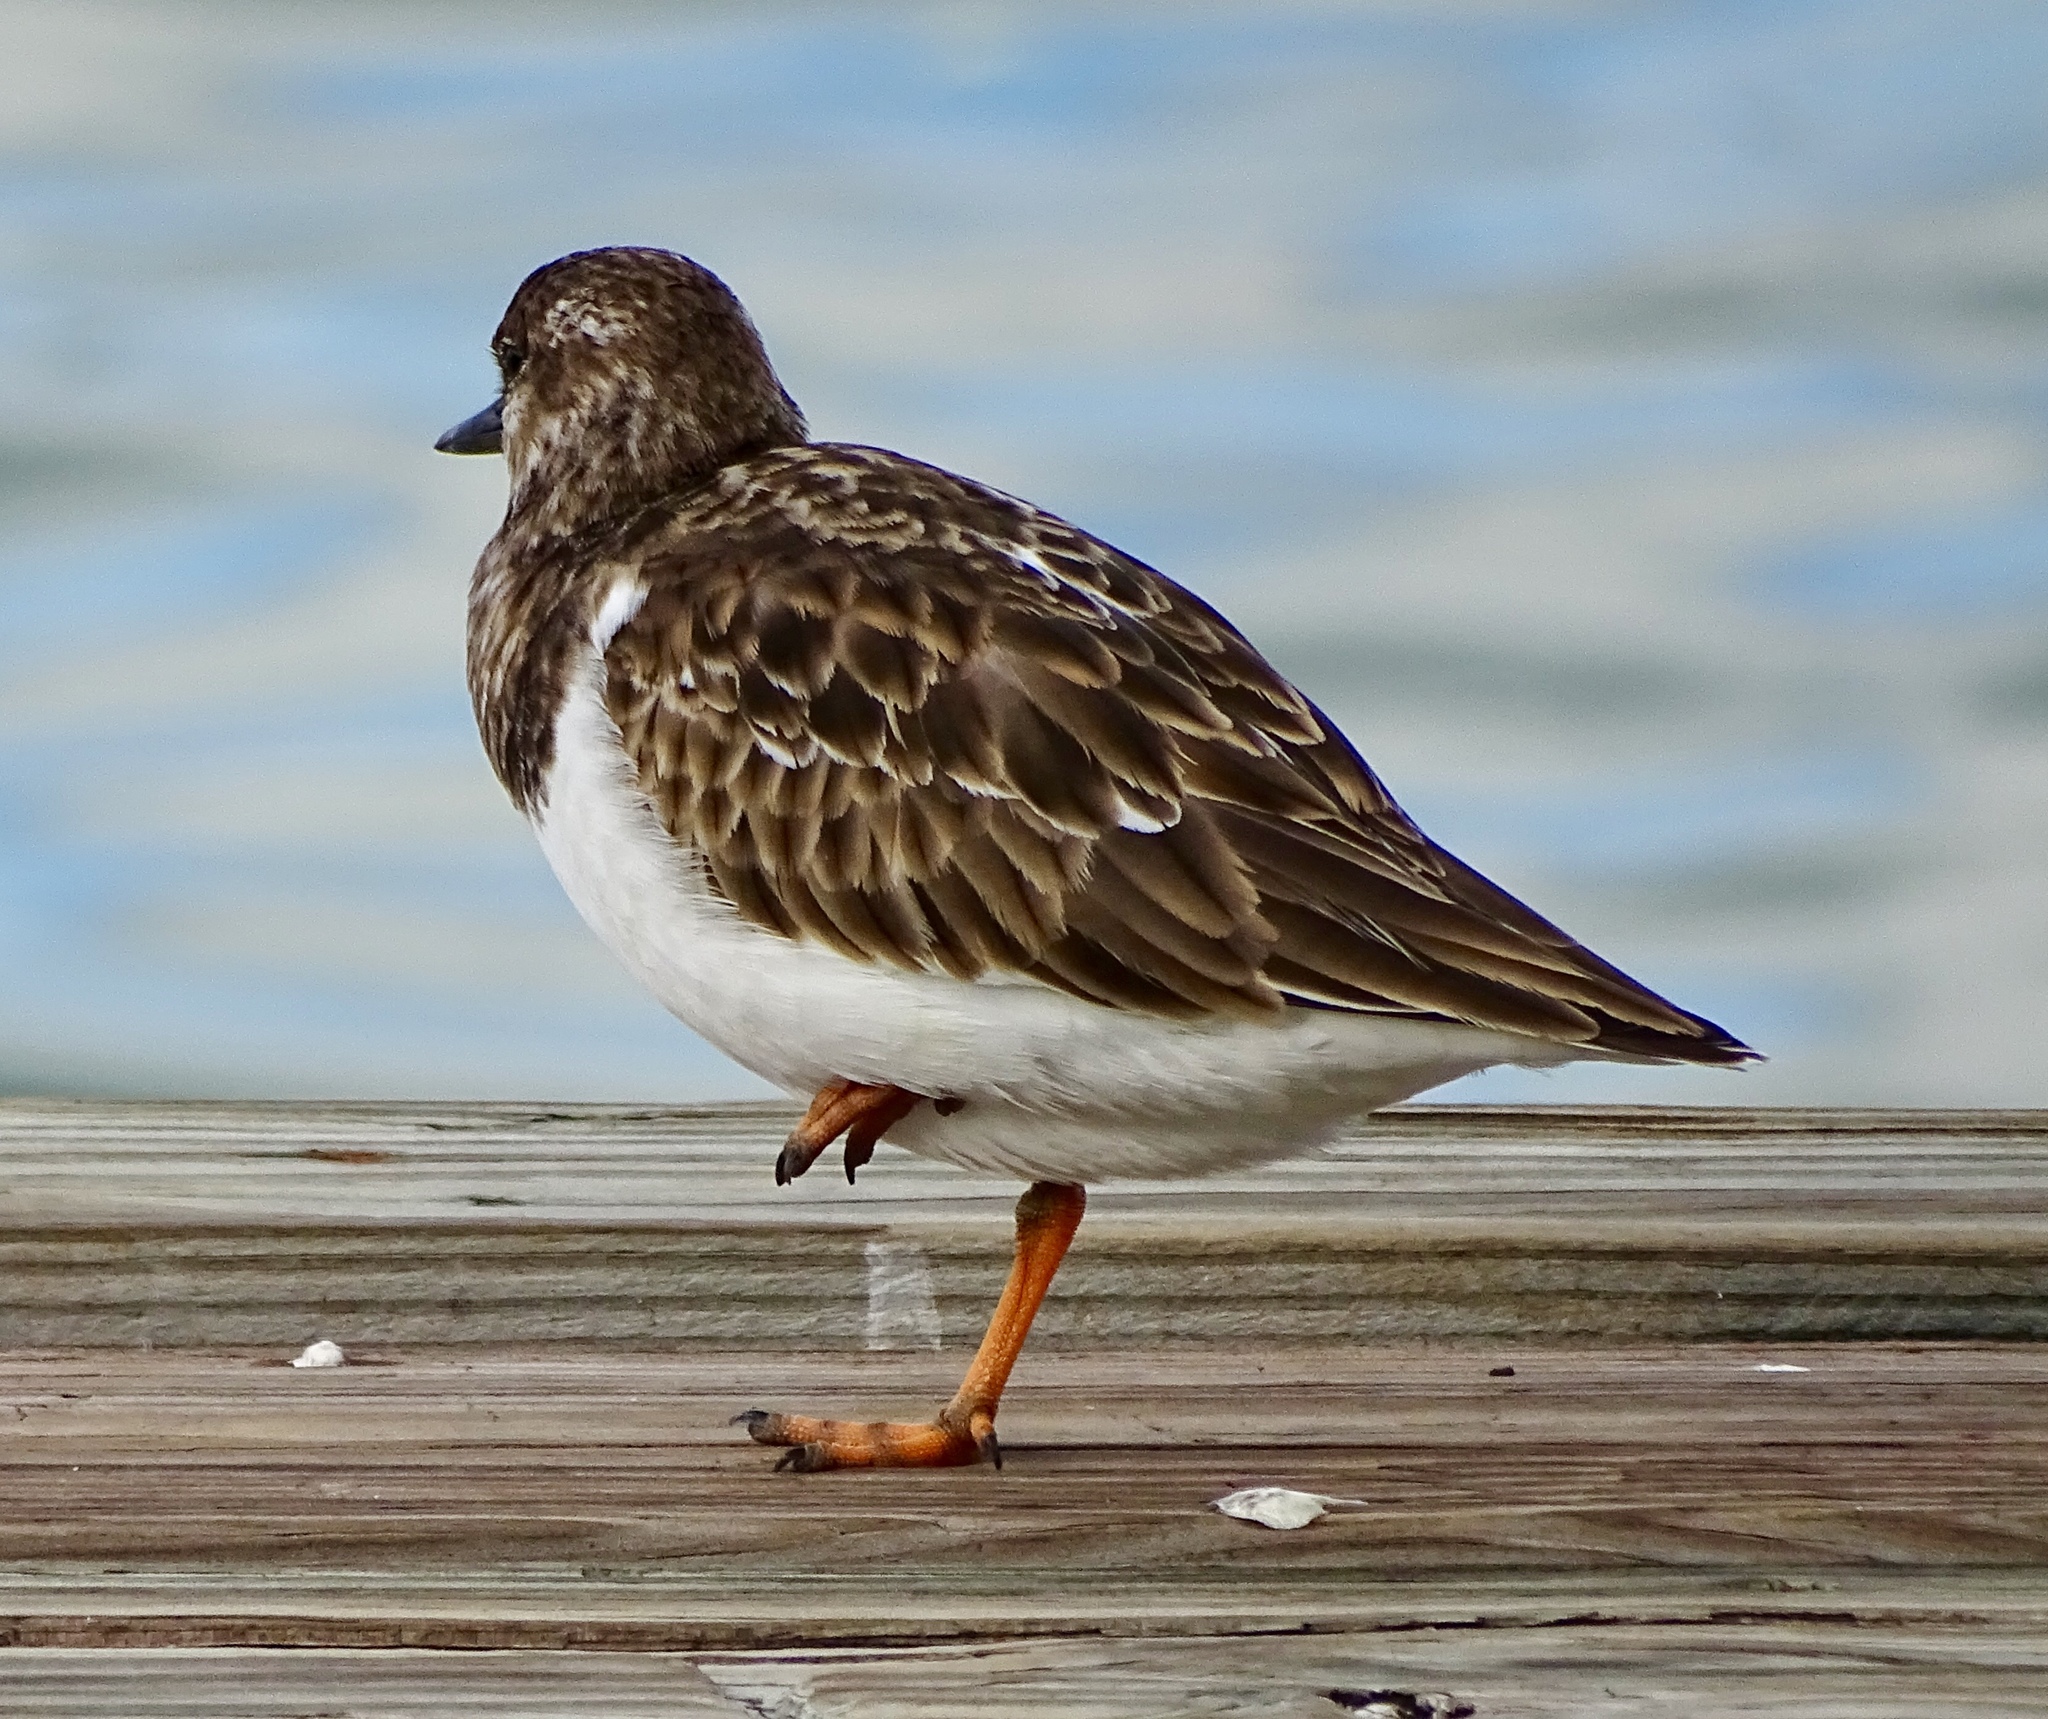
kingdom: Animalia
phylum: Chordata
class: Aves
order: Charadriiformes
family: Scolopacidae
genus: Arenaria
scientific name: Arenaria interpres
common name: Ruddy turnstone
